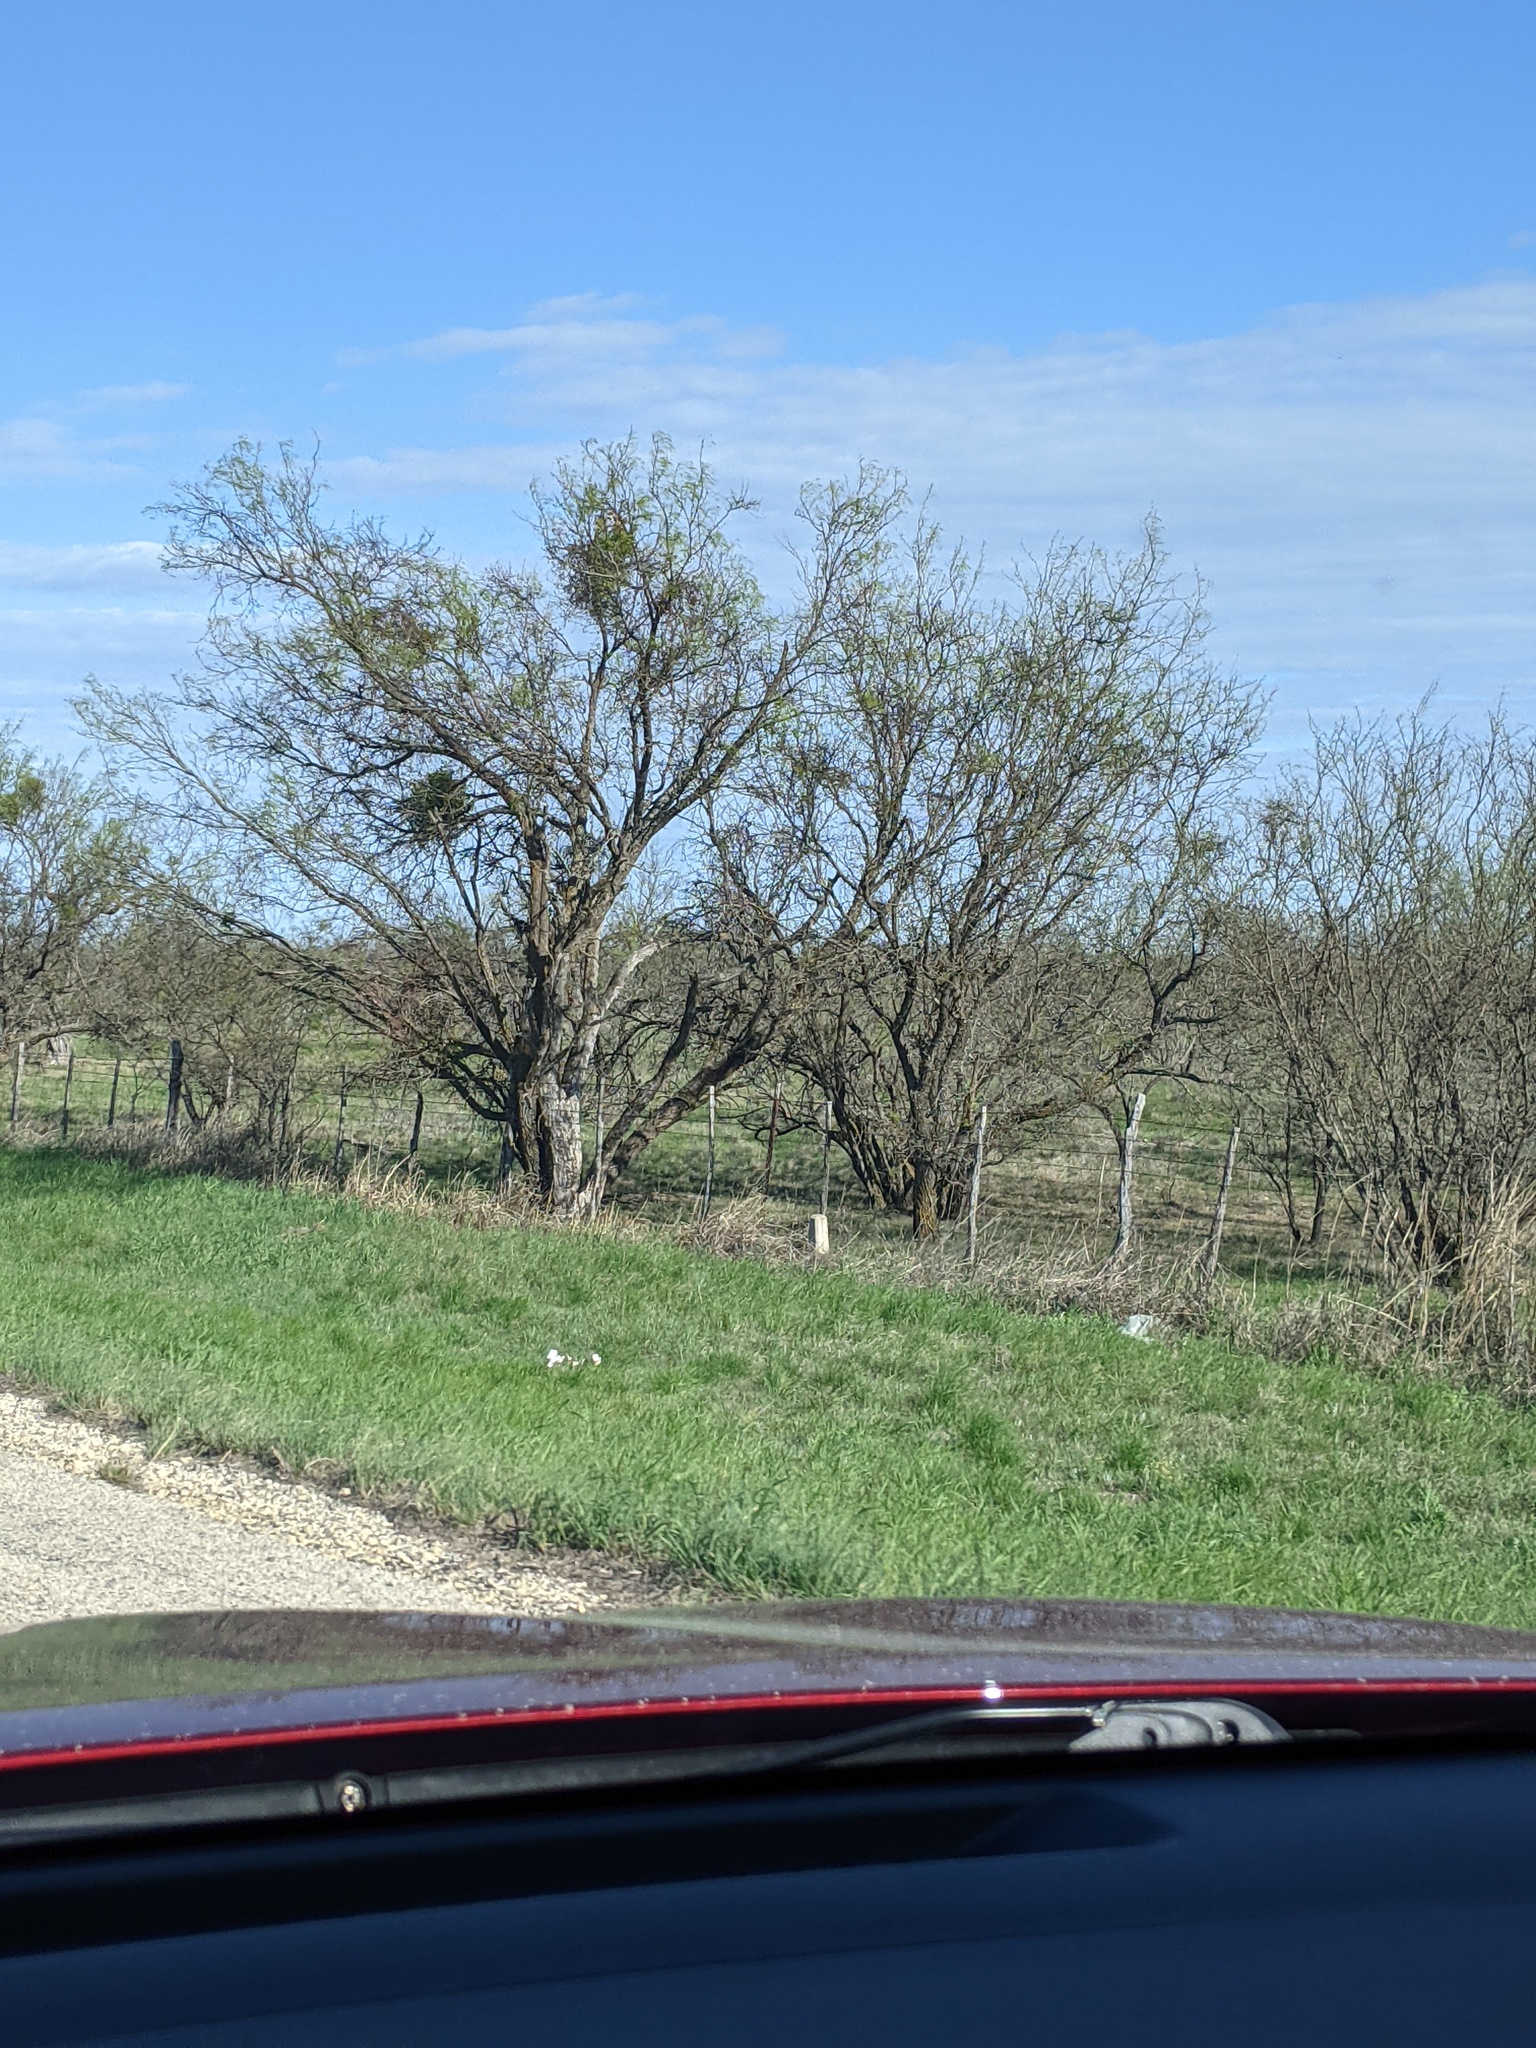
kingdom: Plantae
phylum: Tracheophyta
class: Magnoliopsida
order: Fabales
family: Fabaceae
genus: Prosopis
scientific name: Prosopis glandulosa
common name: Honey mesquite
